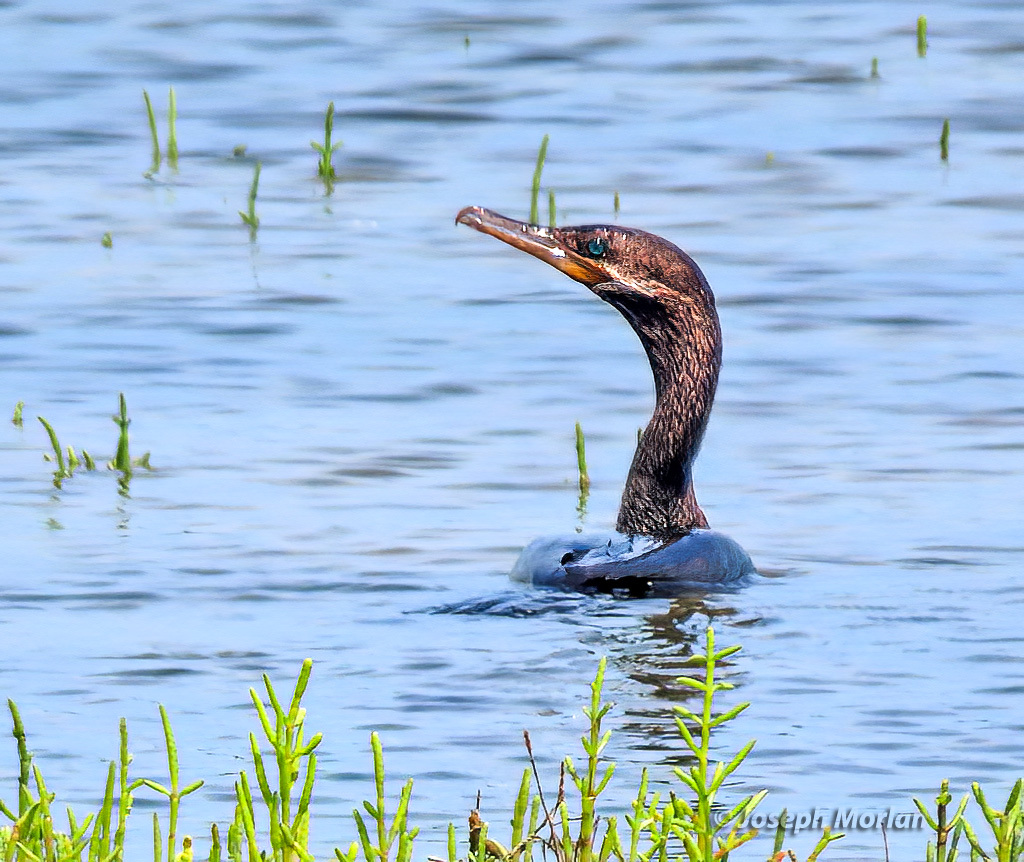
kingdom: Animalia
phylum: Chordata
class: Aves
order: Suliformes
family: Phalacrocoracidae
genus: Phalacrocorax
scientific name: Phalacrocorax brasilianus
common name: Neotropic cormorant
